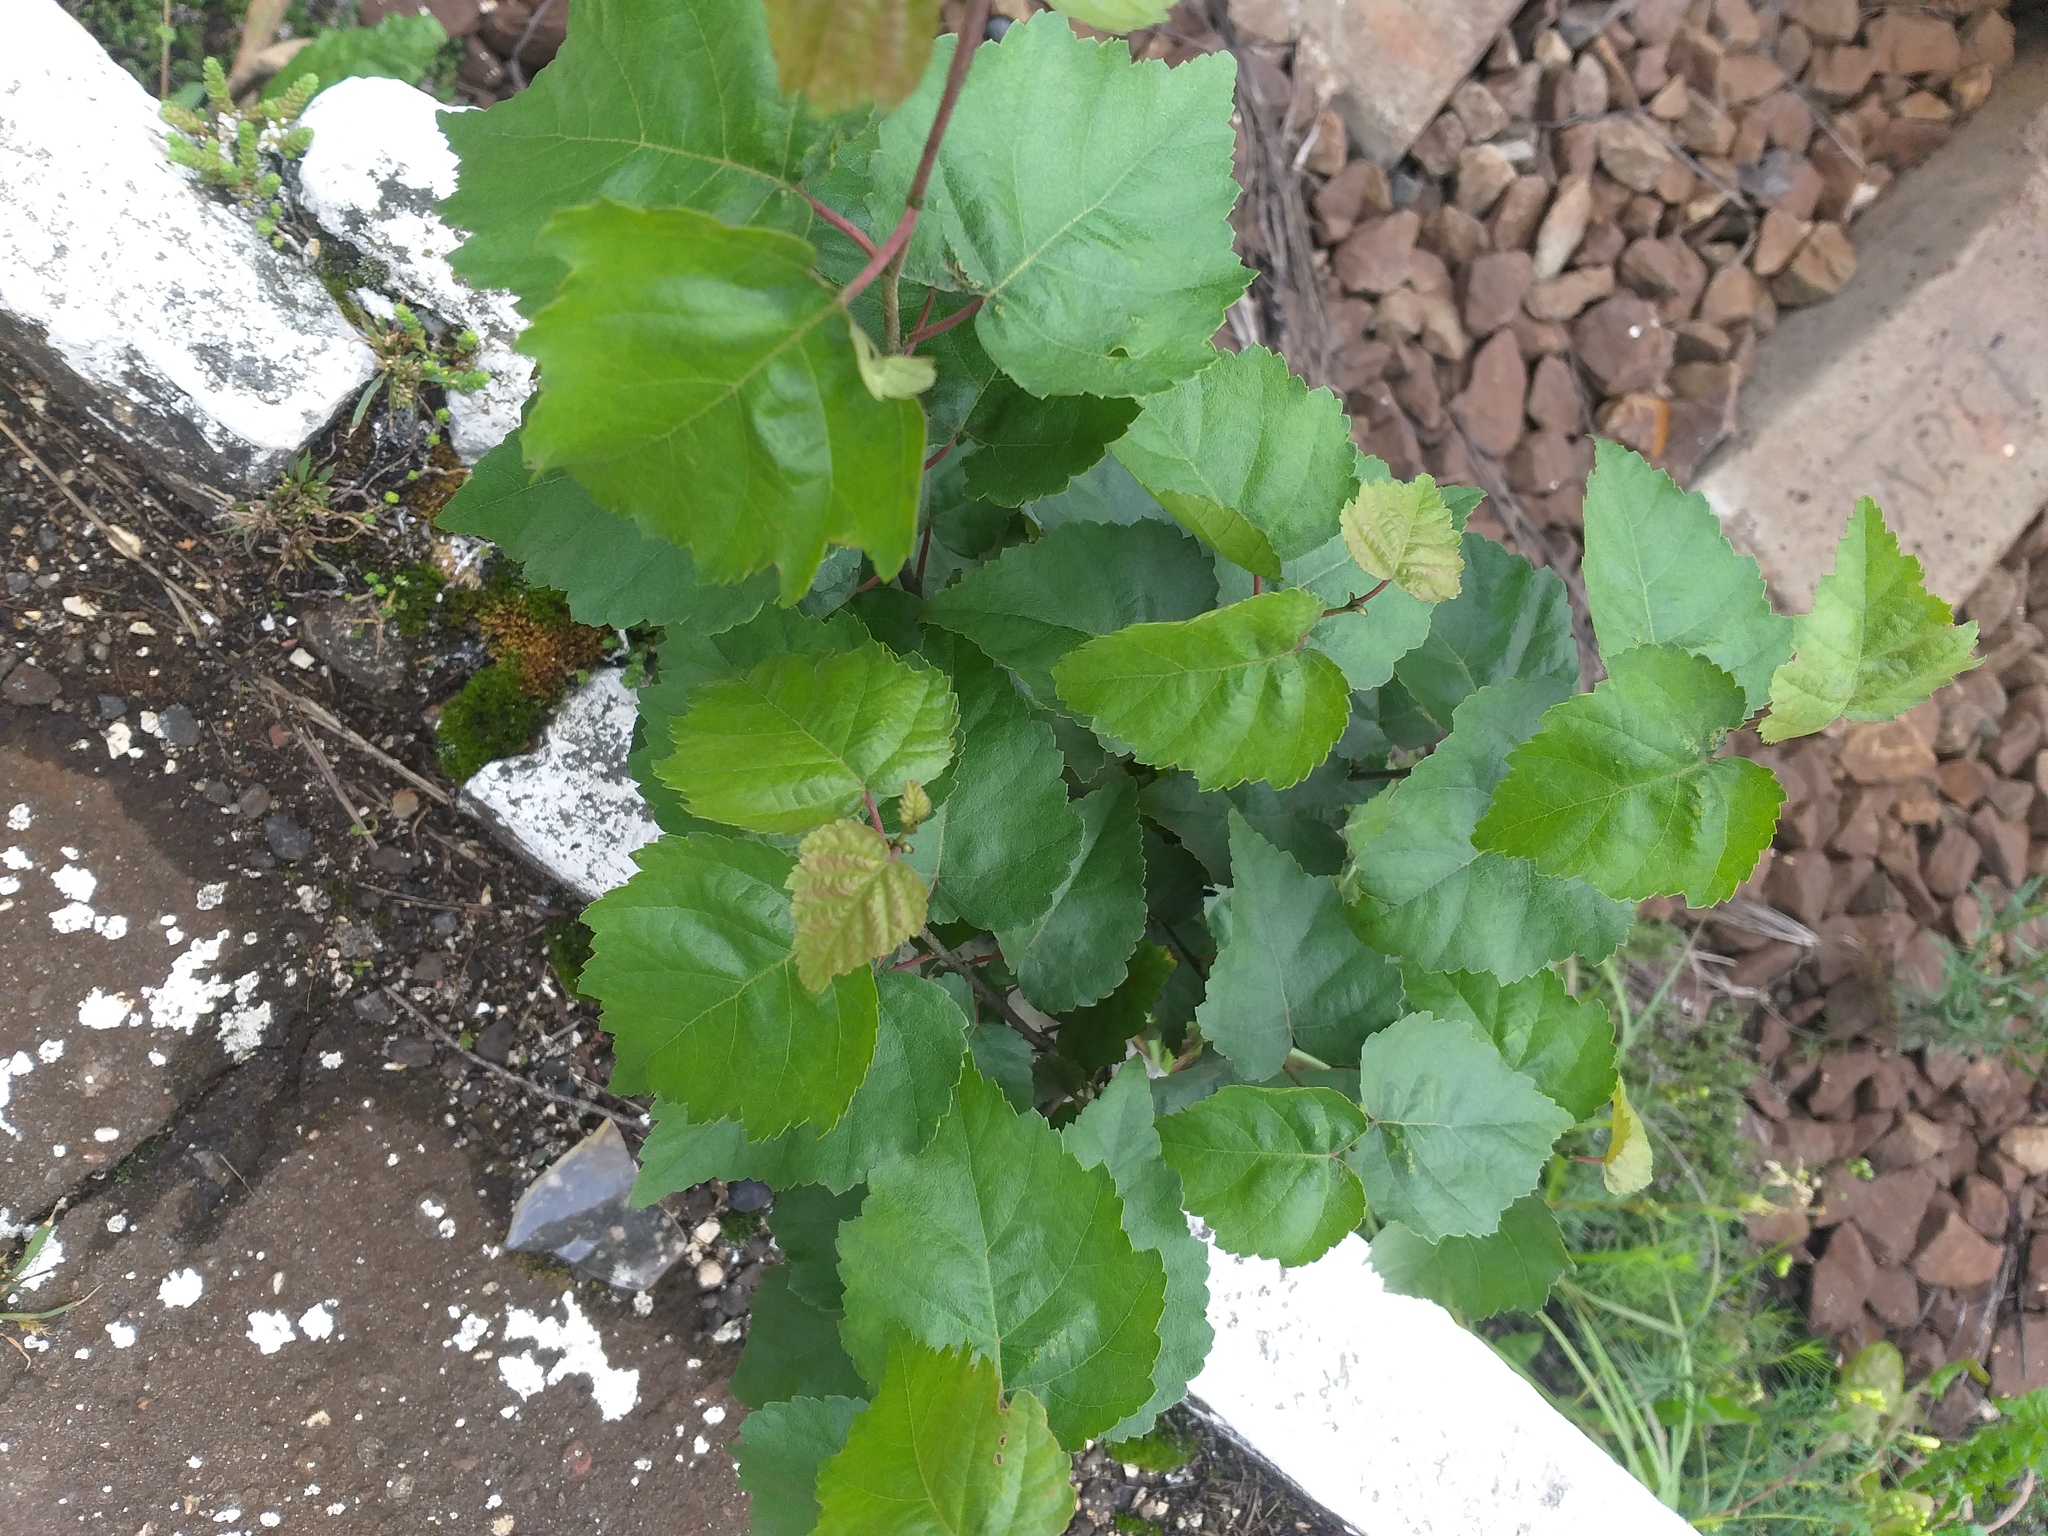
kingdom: Plantae
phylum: Tracheophyta
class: Magnoliopsida
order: Fagales
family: Betulaceae
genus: Betula
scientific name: Betula pendula
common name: Silver birch
